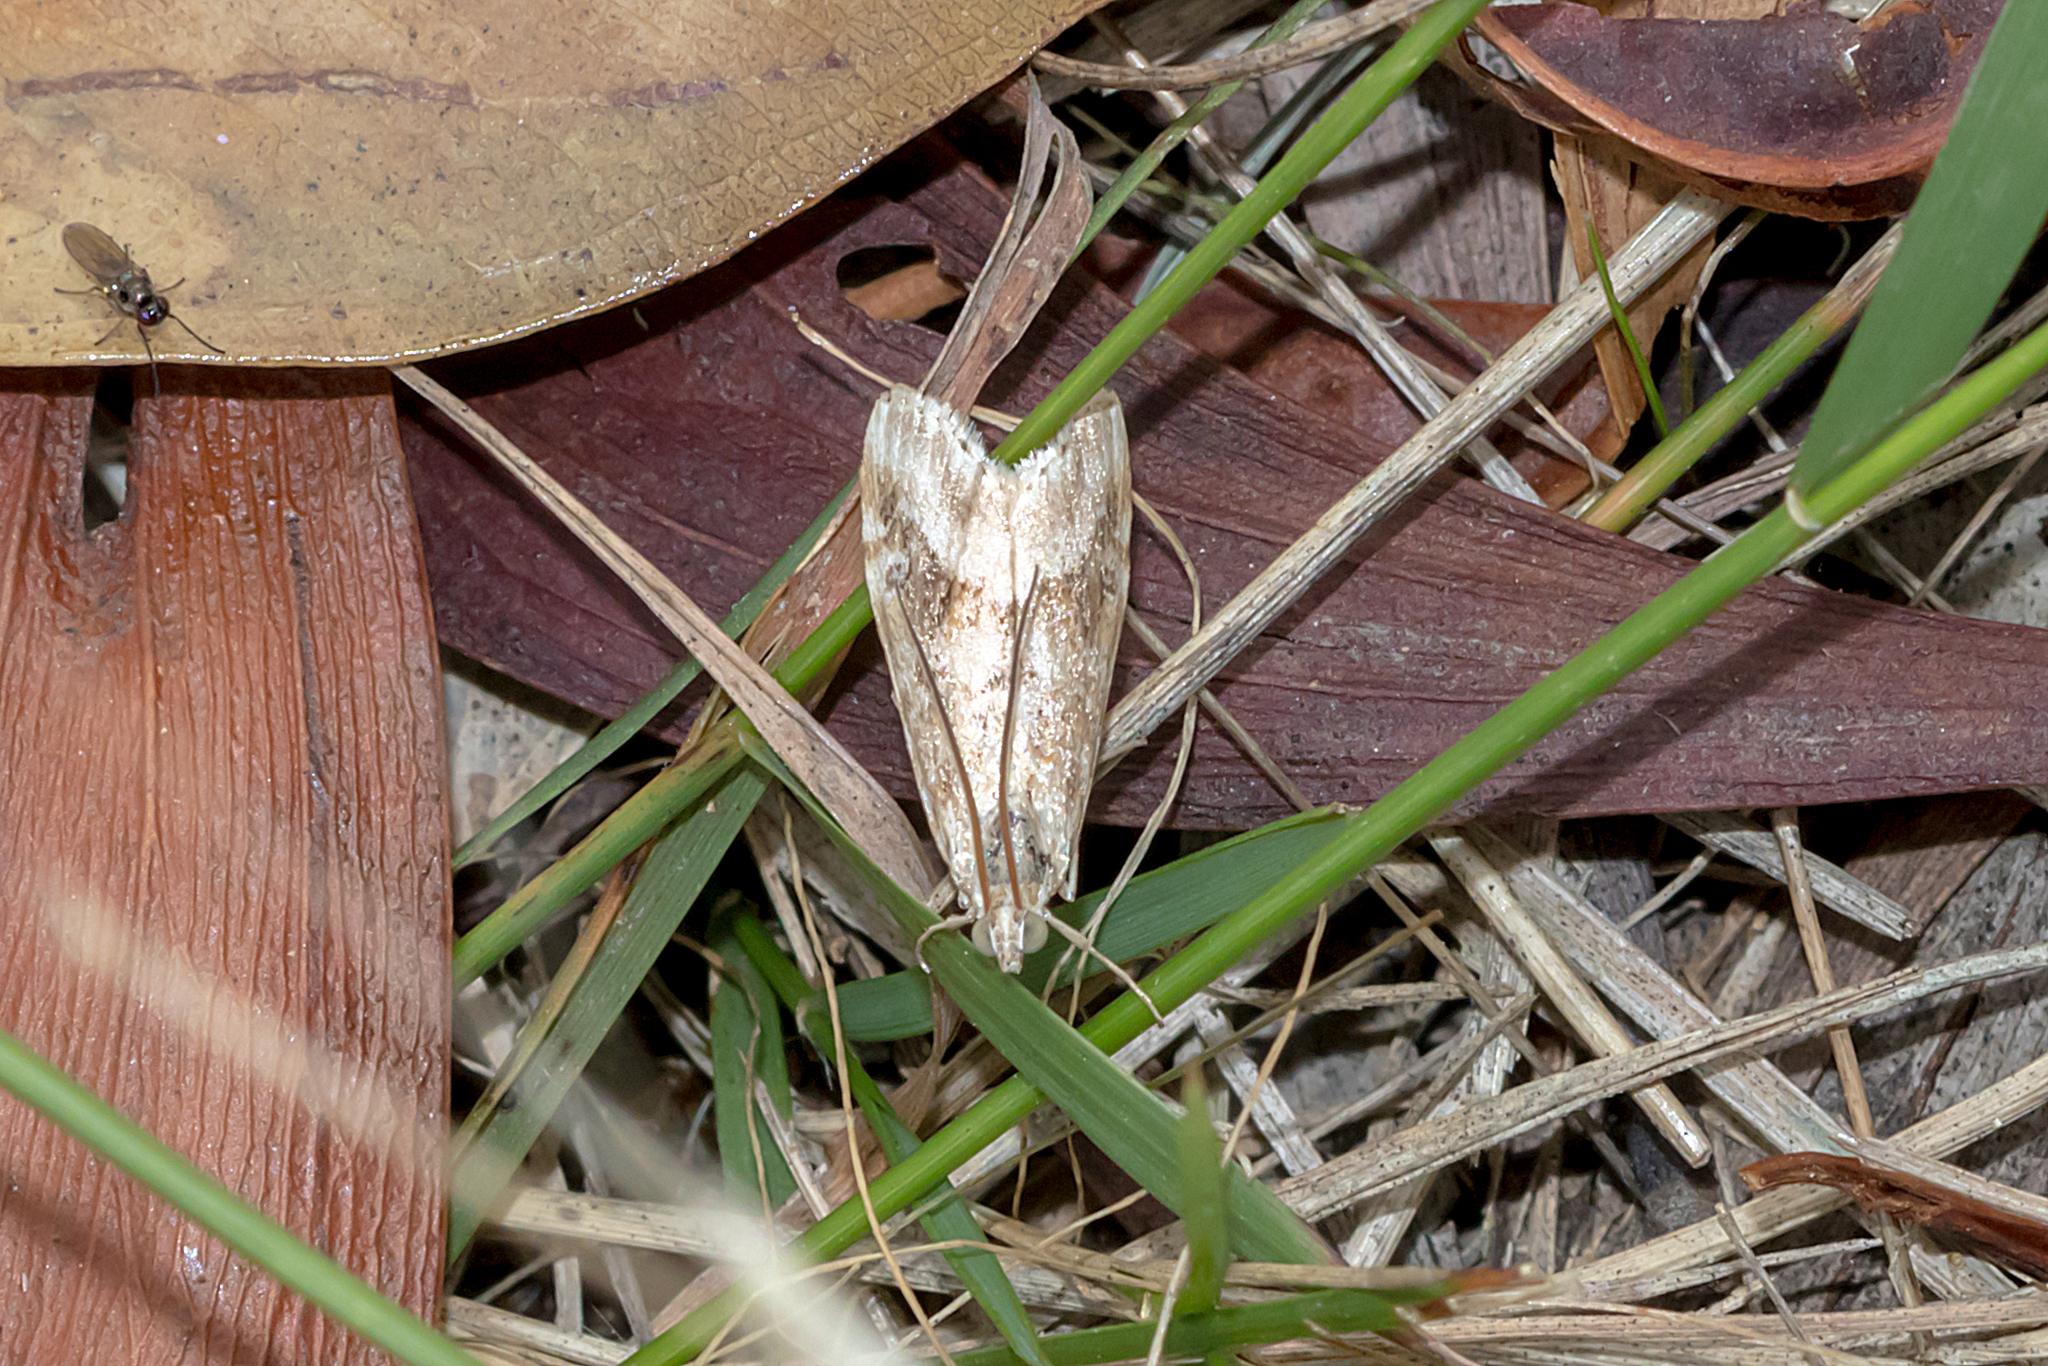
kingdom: Animalia
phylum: Arthropoda
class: Insecta
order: Lepidoptera
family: Crambidae
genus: Hellula
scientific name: Hellula hydralis
